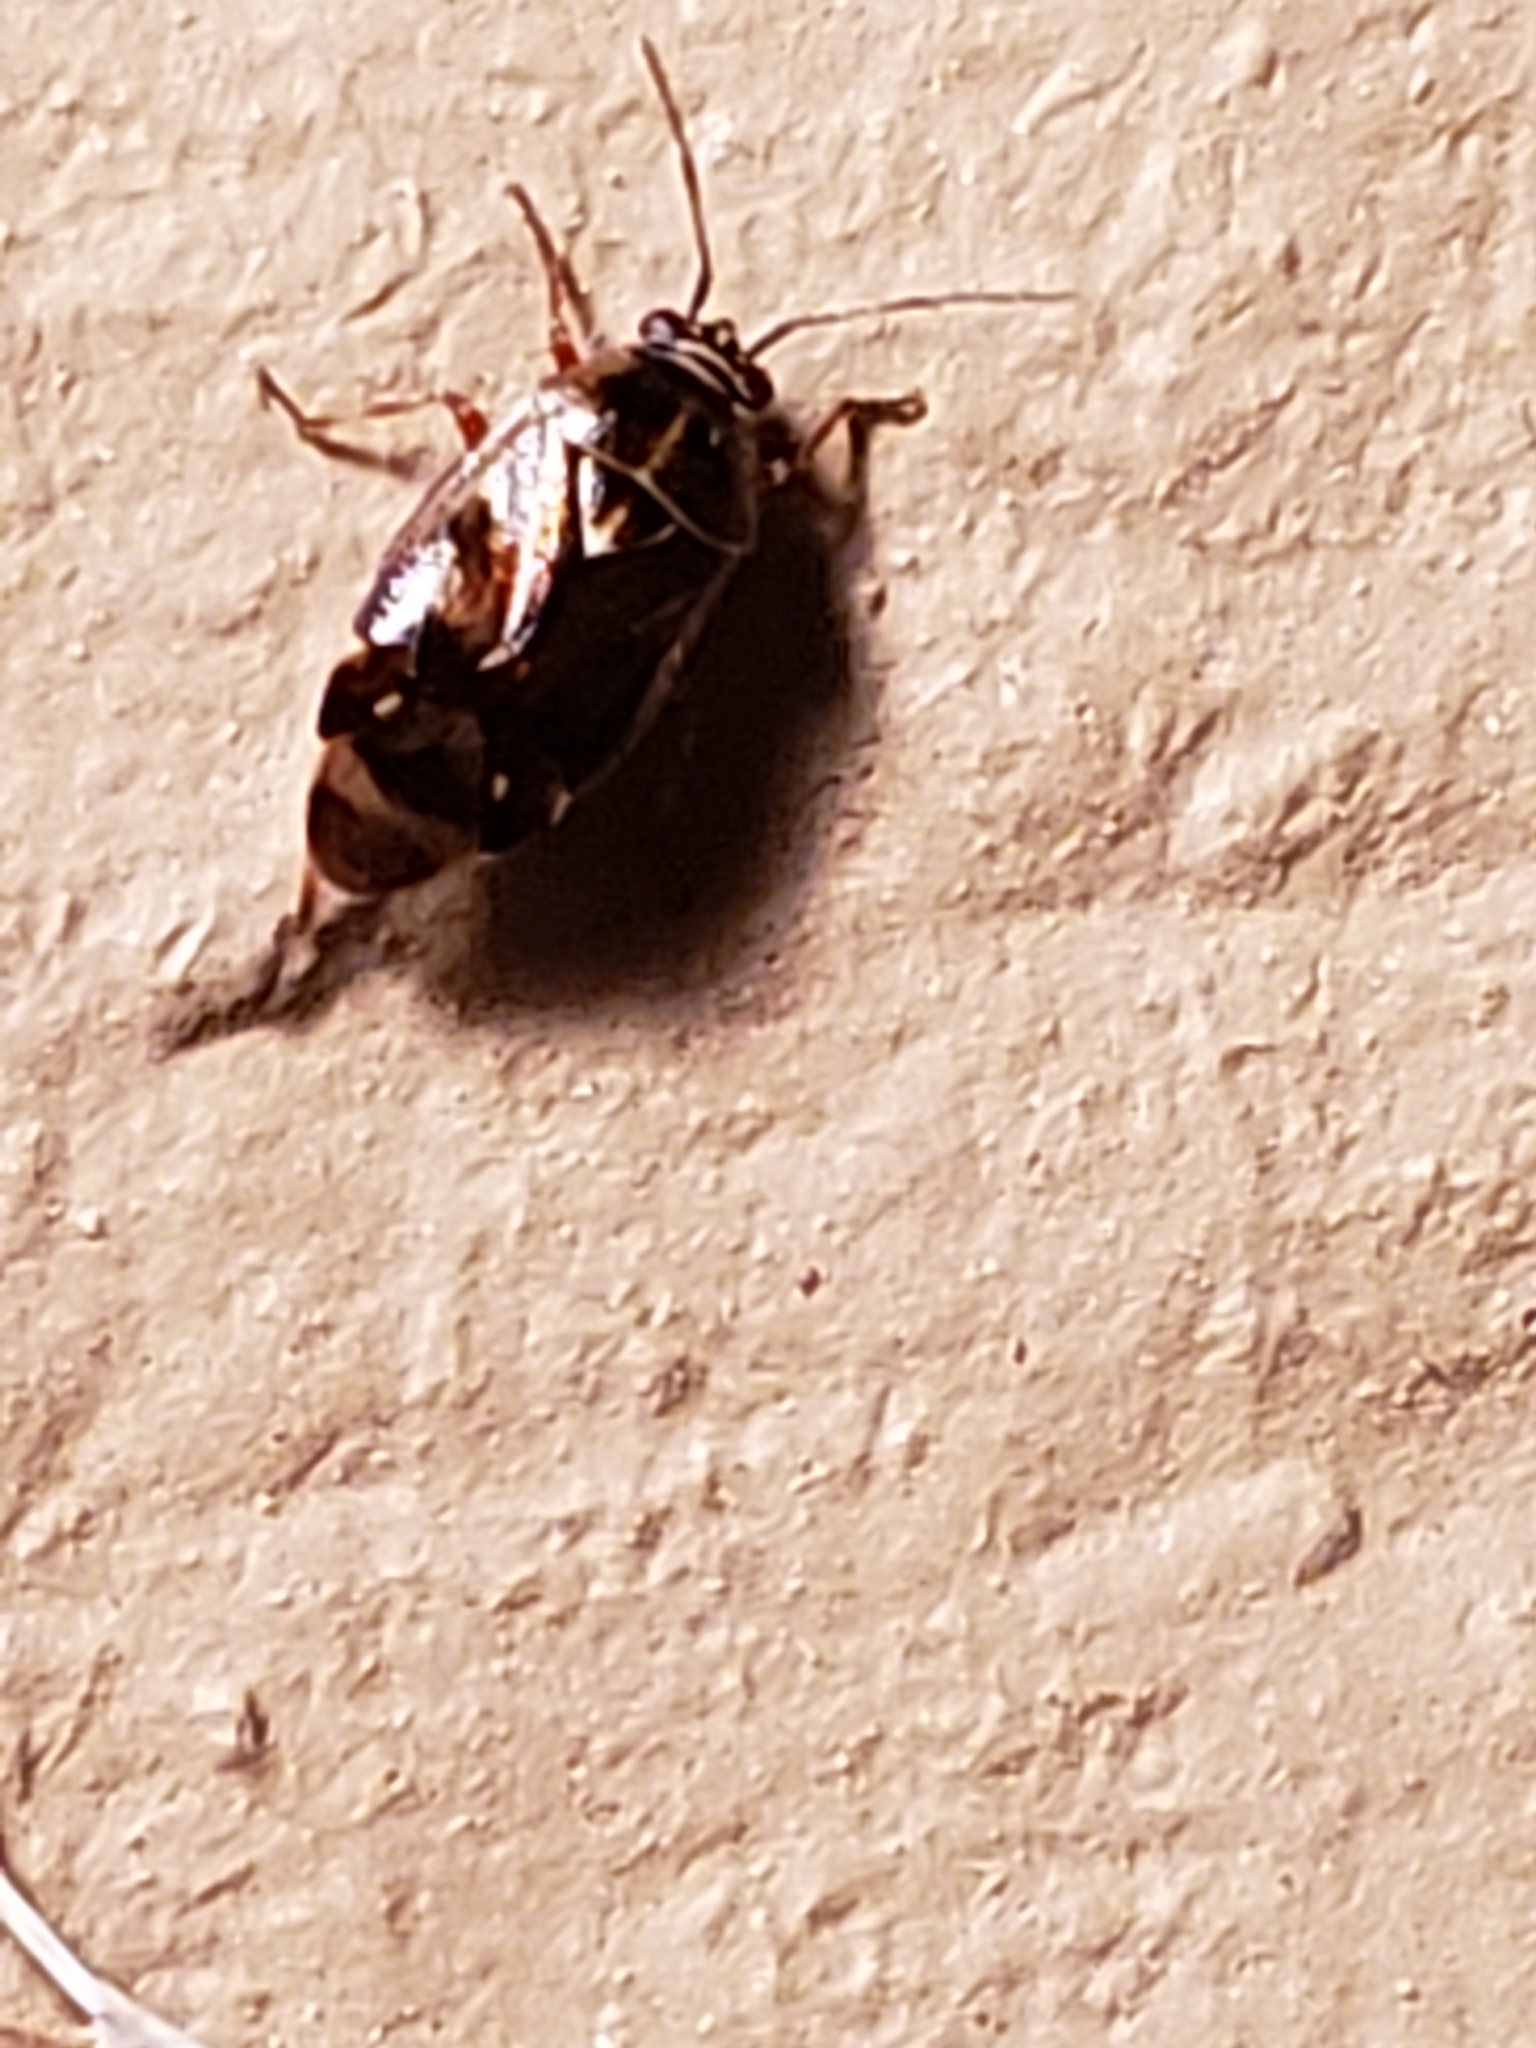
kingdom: Animalia
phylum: Arthropoda
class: Insecta
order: Hemiptera
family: Miridae
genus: Lygus
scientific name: Lygus lineolaris
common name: North american tarnished plant bug
